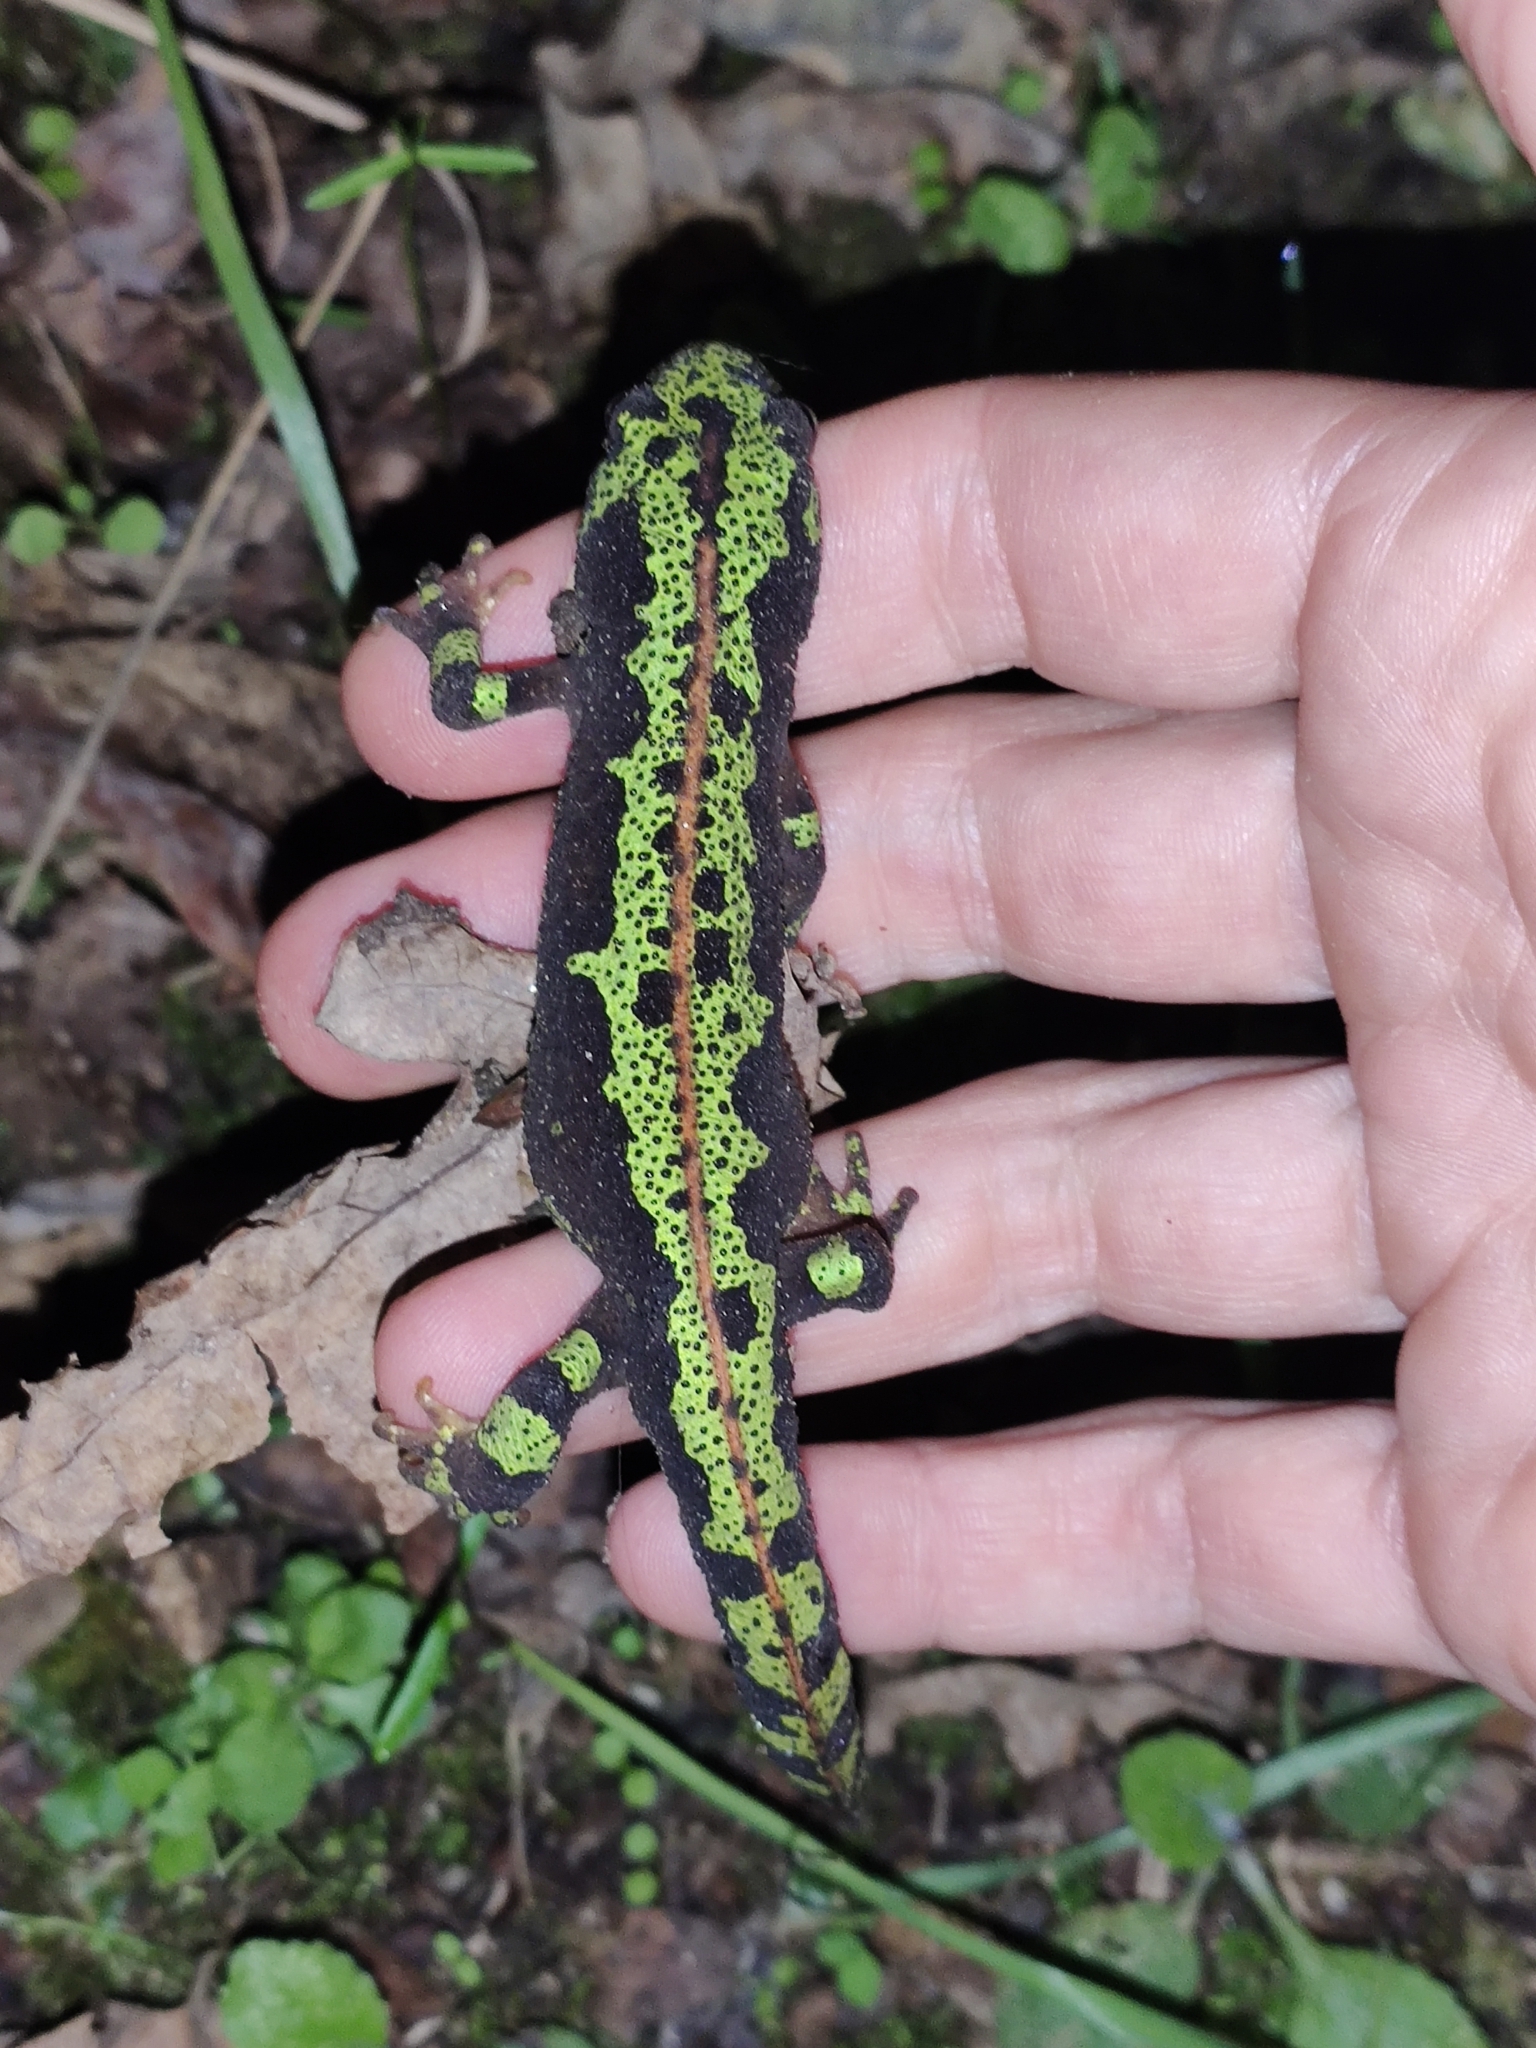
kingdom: Animalia
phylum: Chordata
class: Amphibia
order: Caudata
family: Salamandridae
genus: Triturus
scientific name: Triturus marmoratus
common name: Marbled newt
